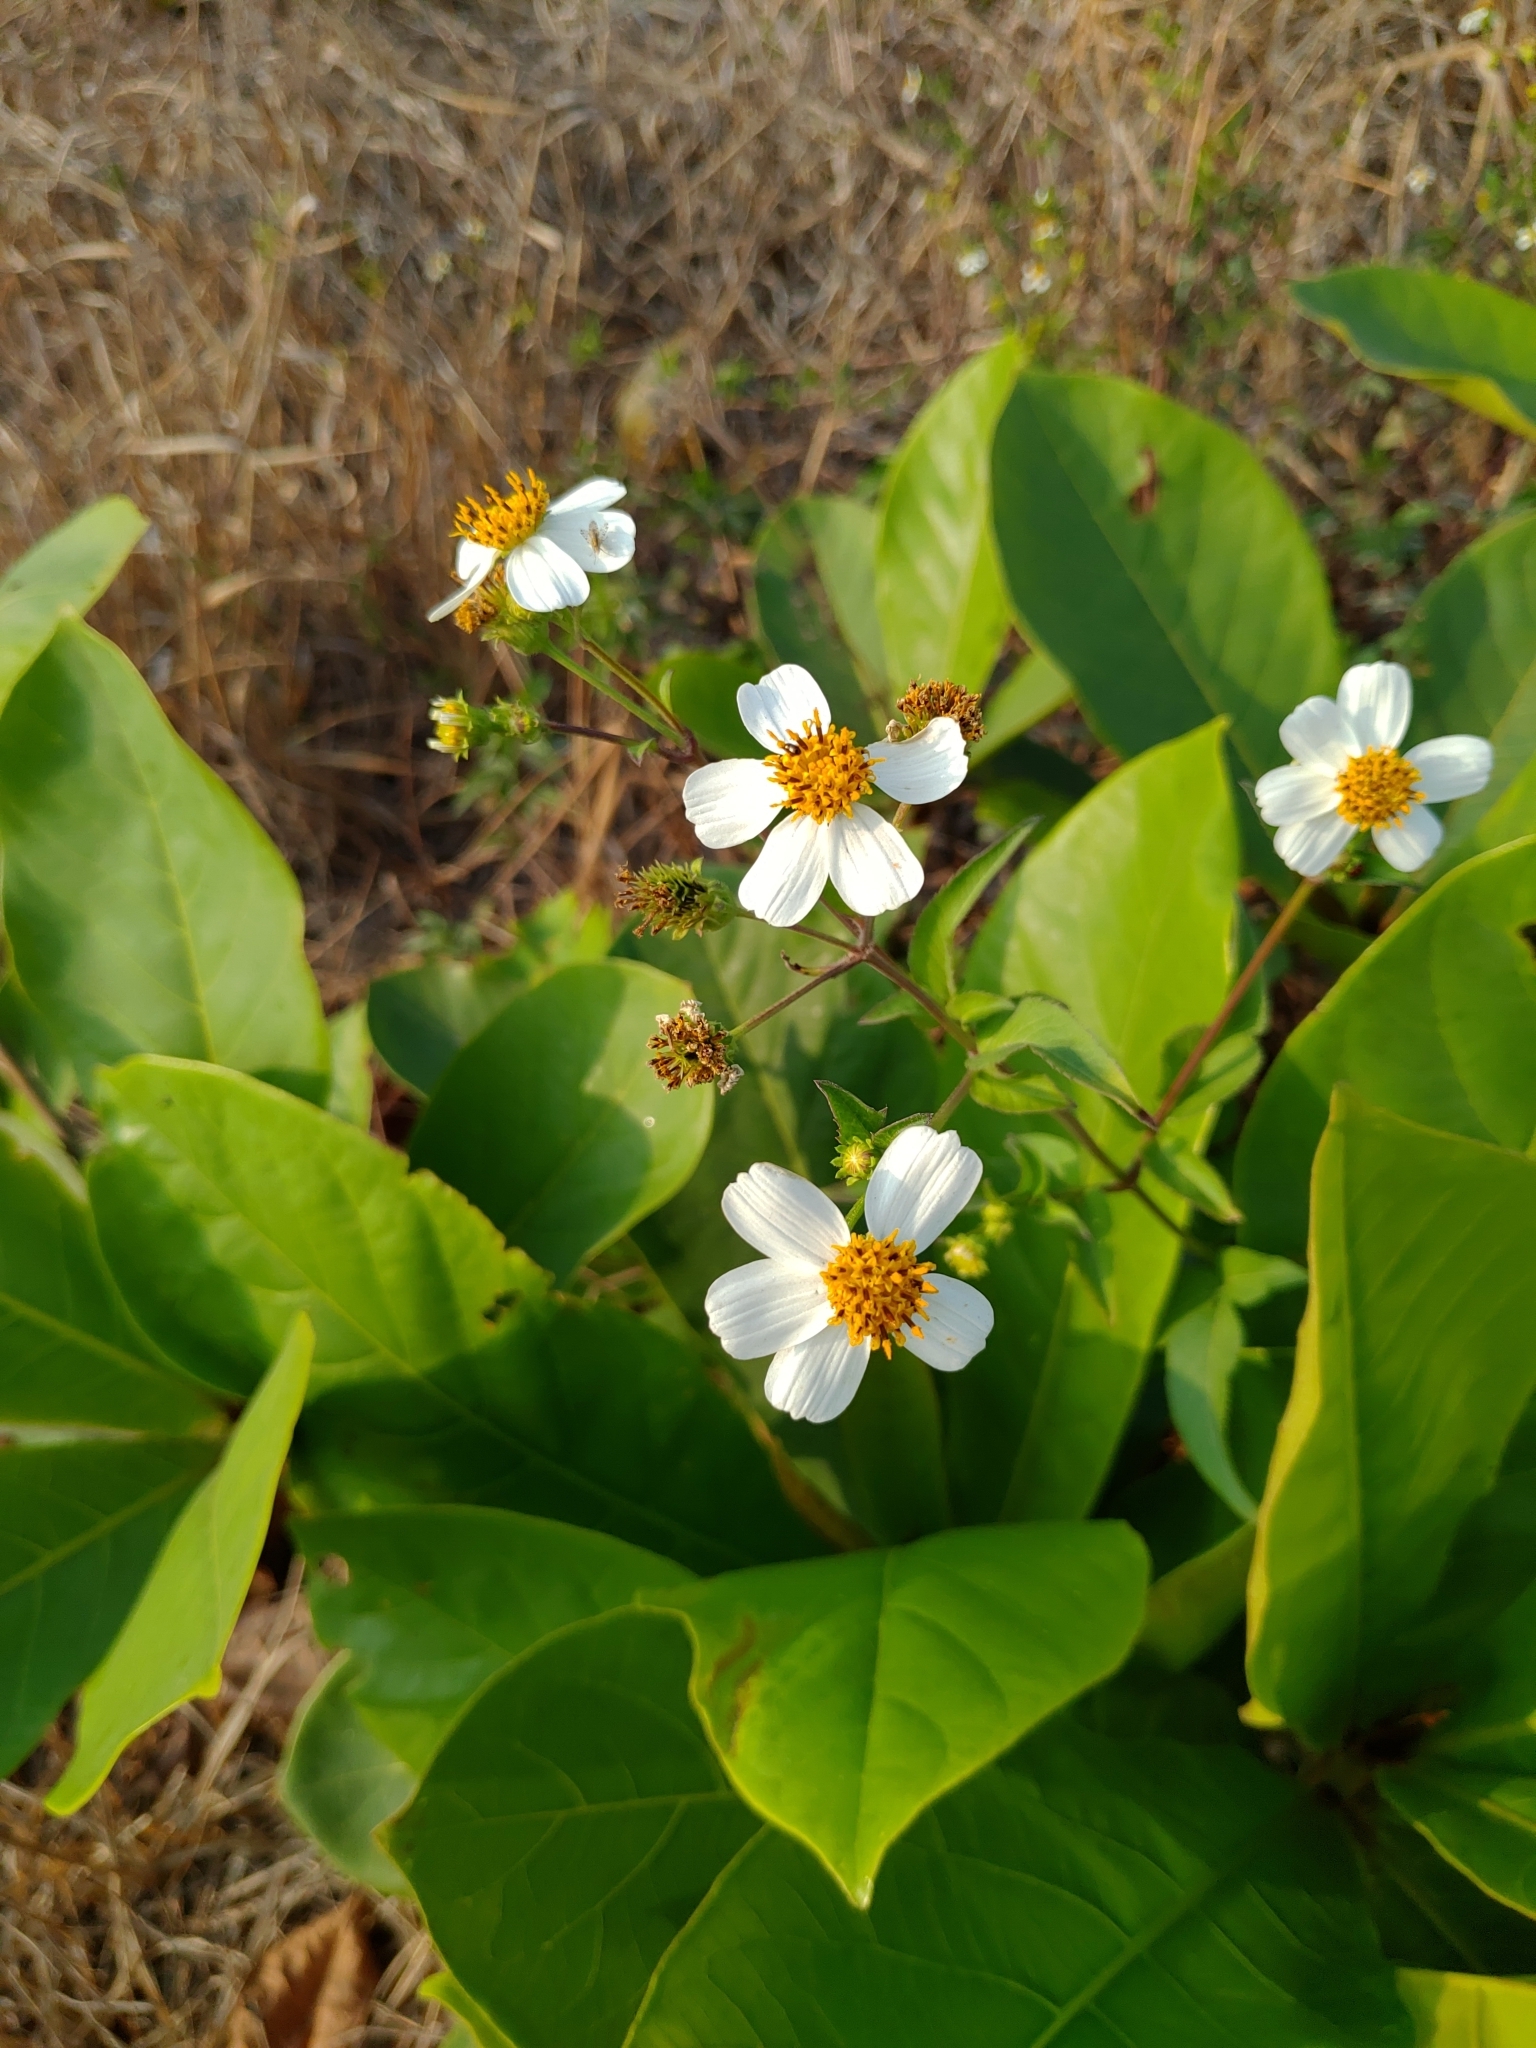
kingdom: Plantae
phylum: Tracheophyta
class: Magnoliopsida
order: Asterales
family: Asteraceae
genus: Bidens
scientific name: Bidens alba
